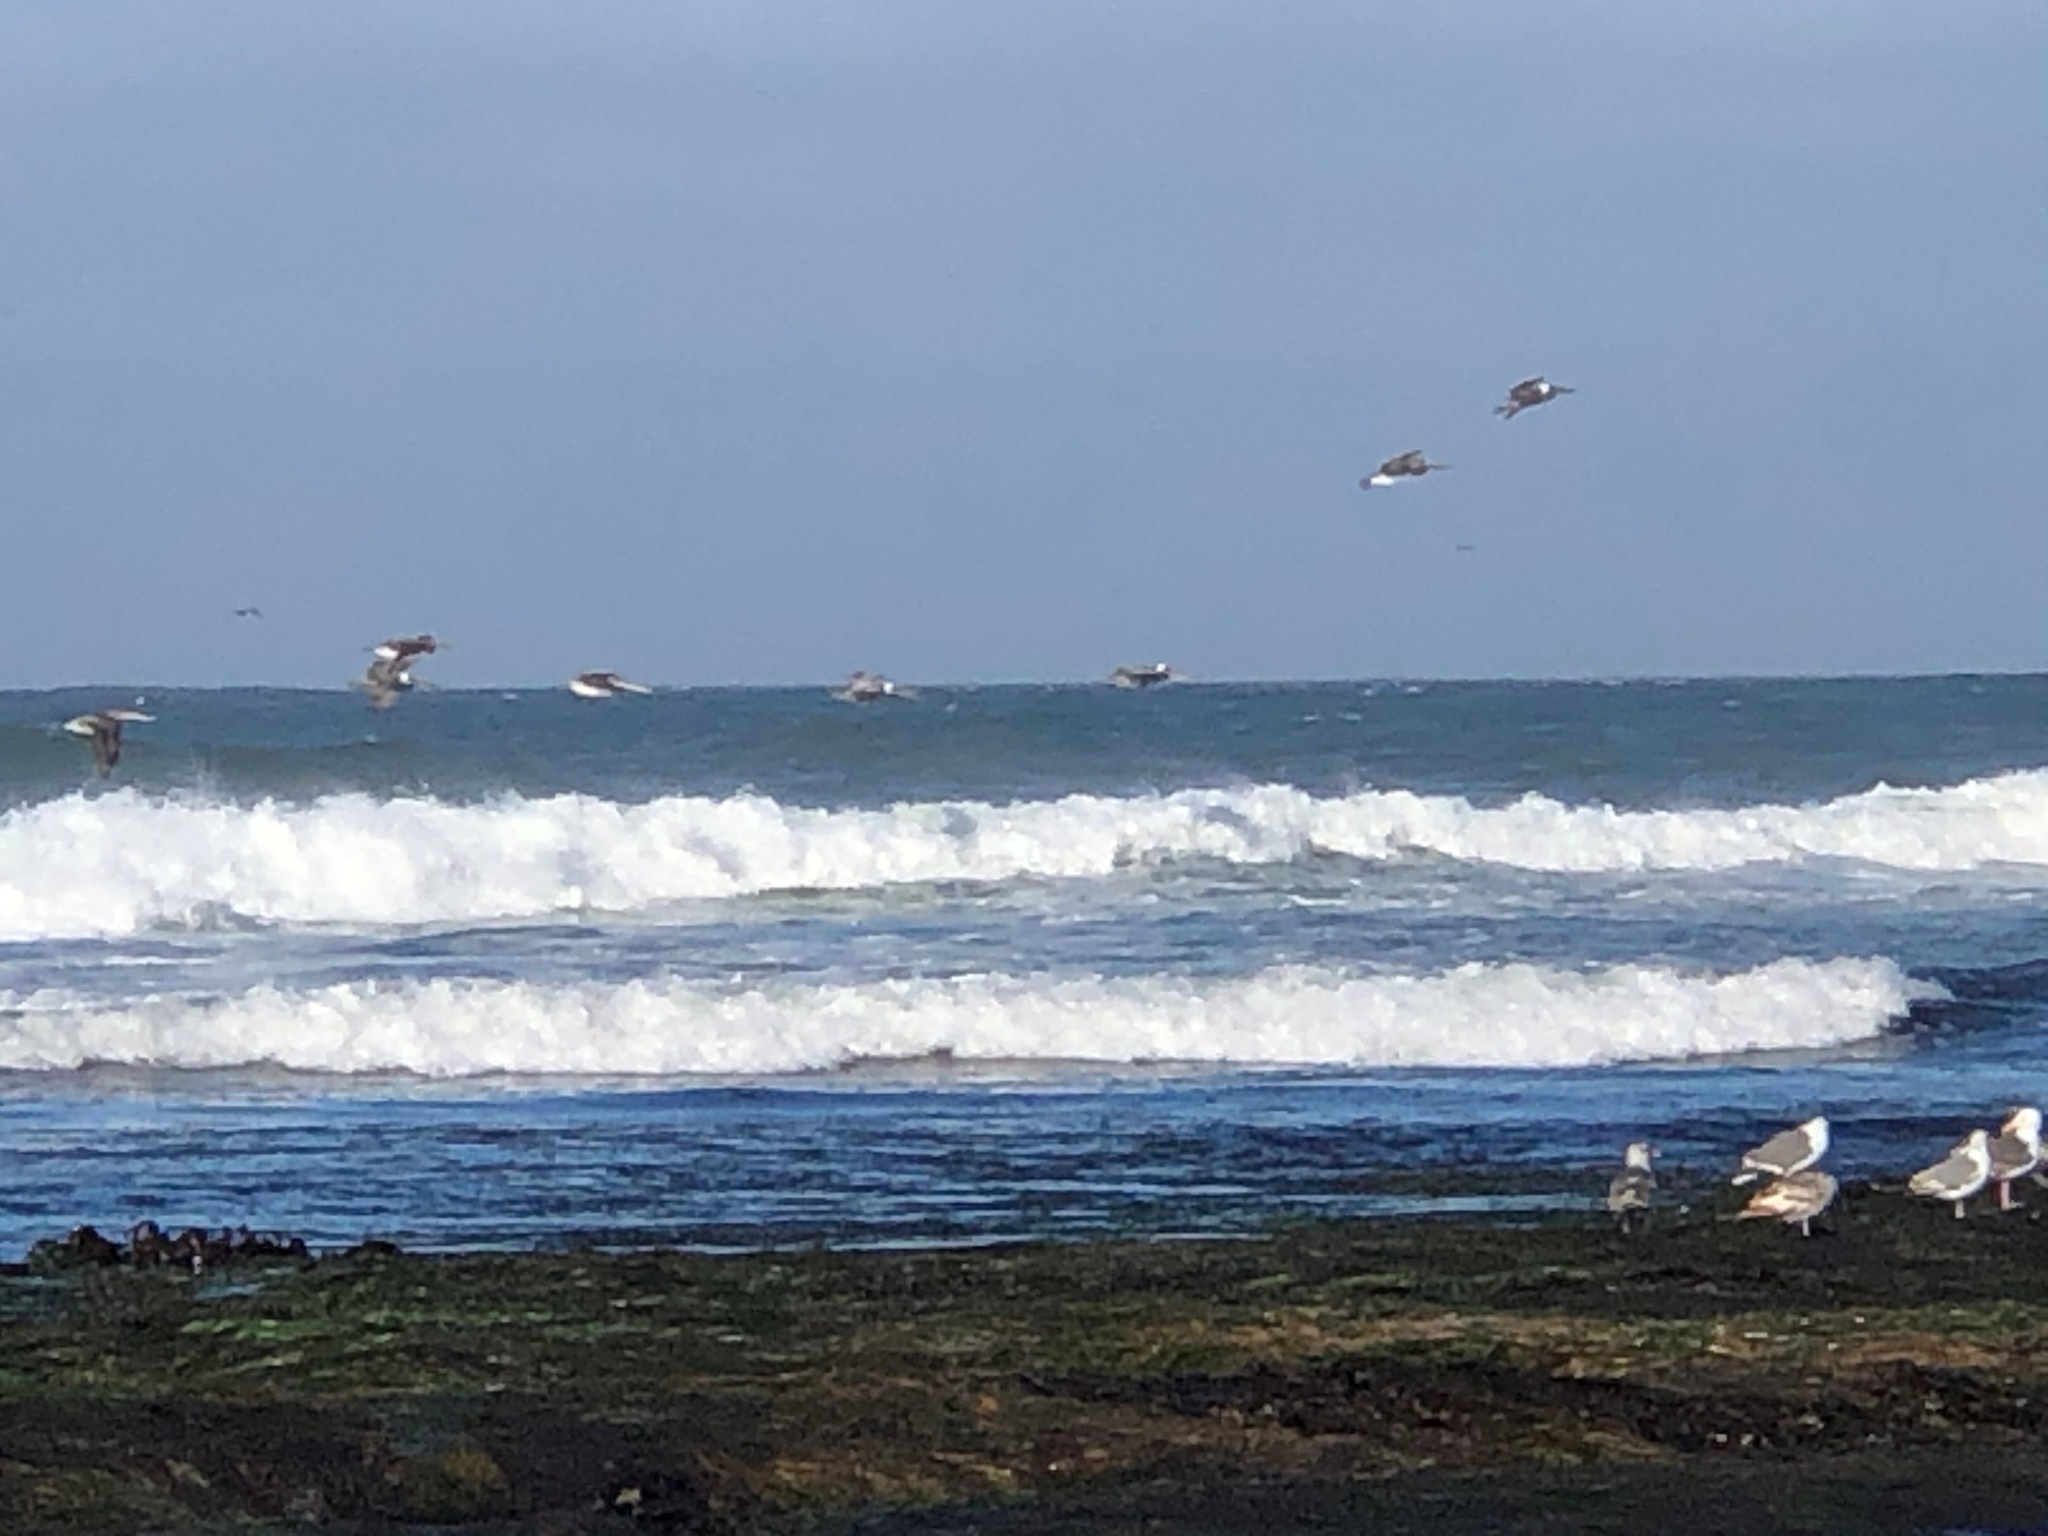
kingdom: Animalia
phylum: Chordata
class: Aves
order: Pelecaniformes
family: Pelecanidae
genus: Pelecanus
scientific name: Pelecanus occidentalis
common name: Brown pelican
